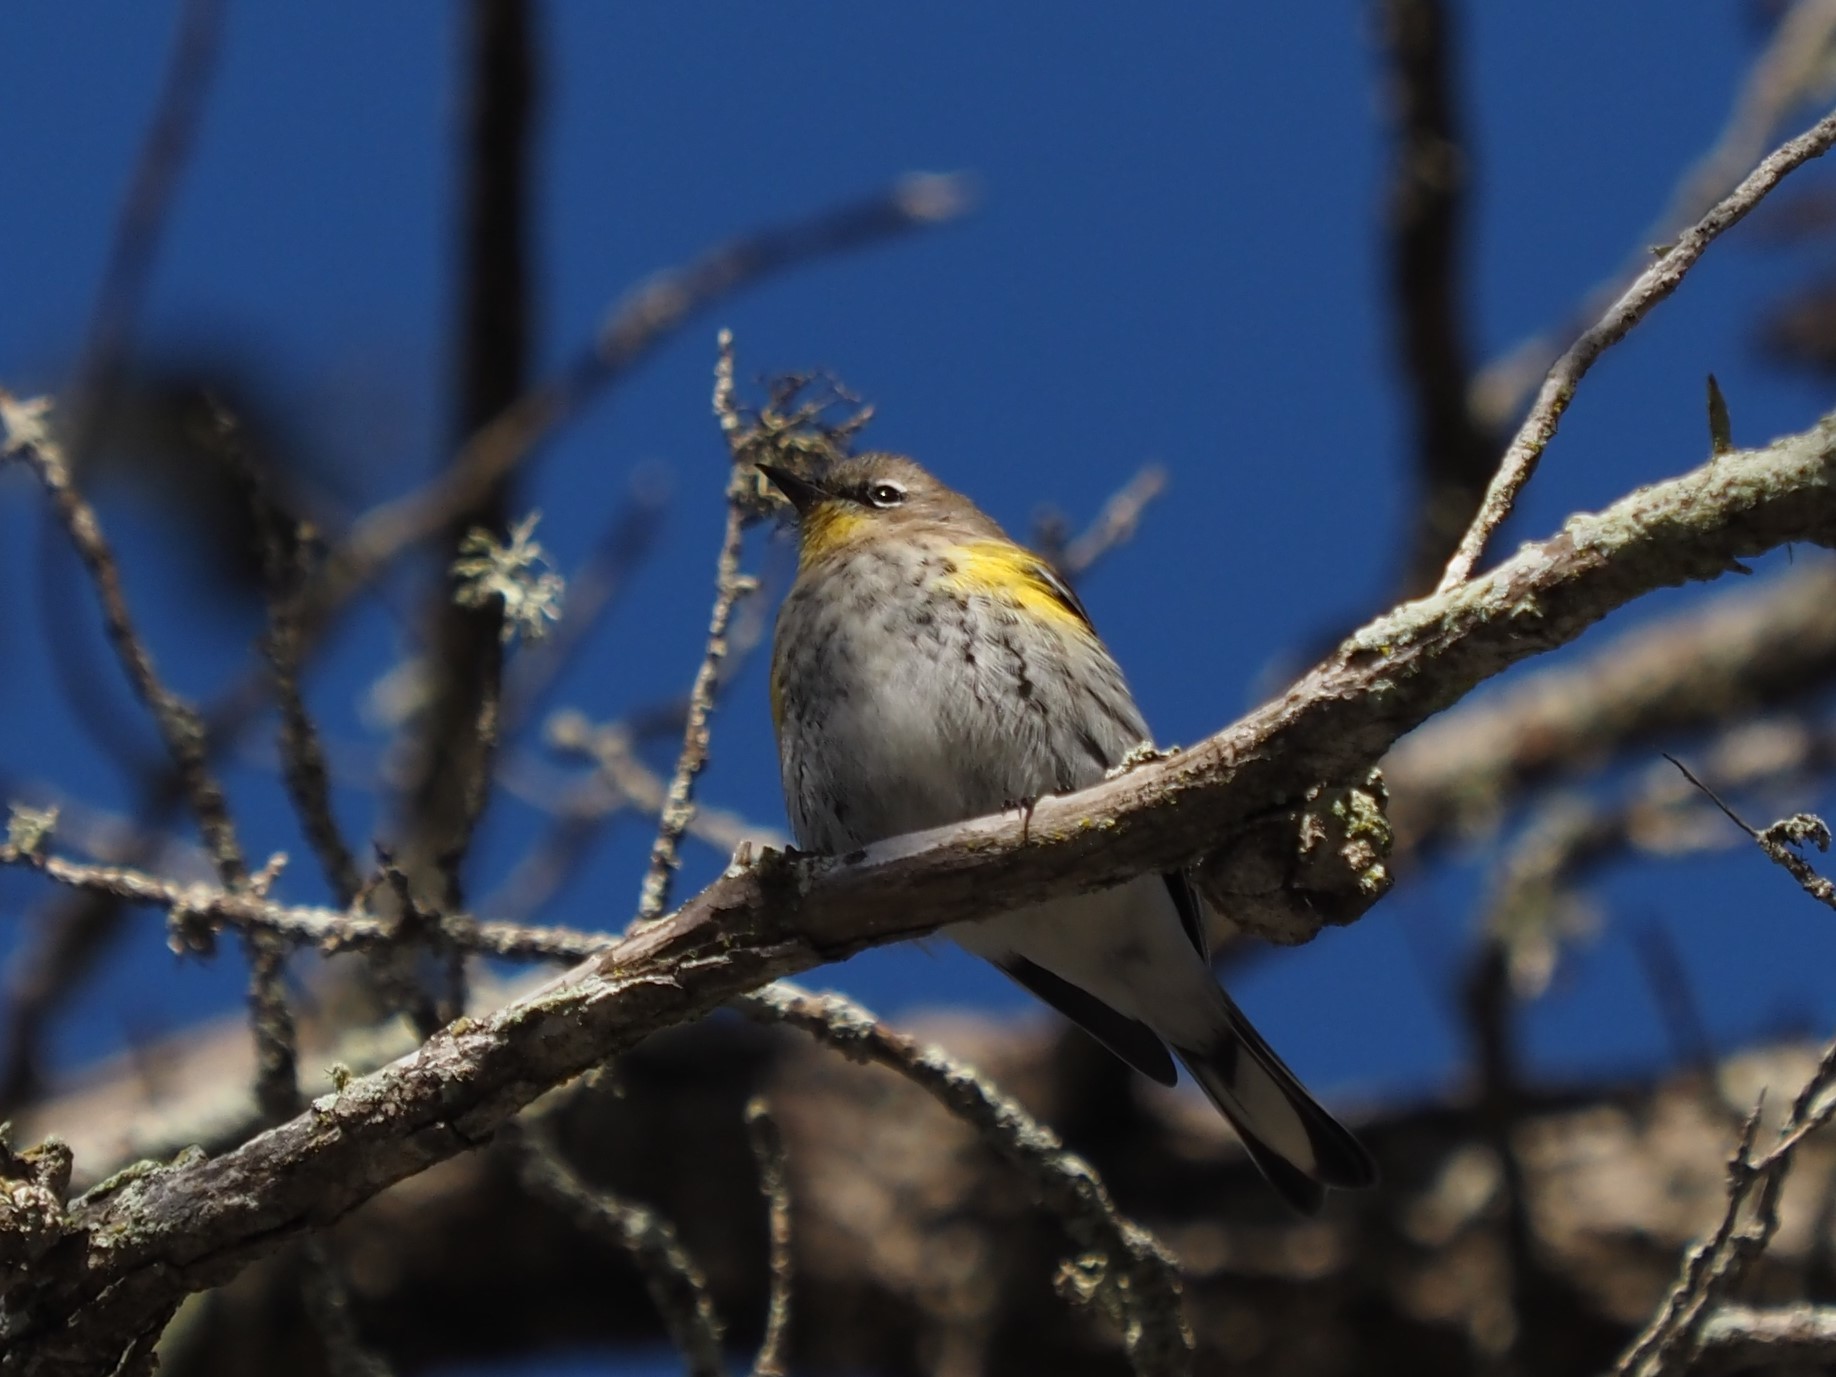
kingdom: Animalia
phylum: Chordata
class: Aves
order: Passeriformes
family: Parulidae
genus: Setophaga
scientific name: Setophaga coronata
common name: Myrtle warbler
